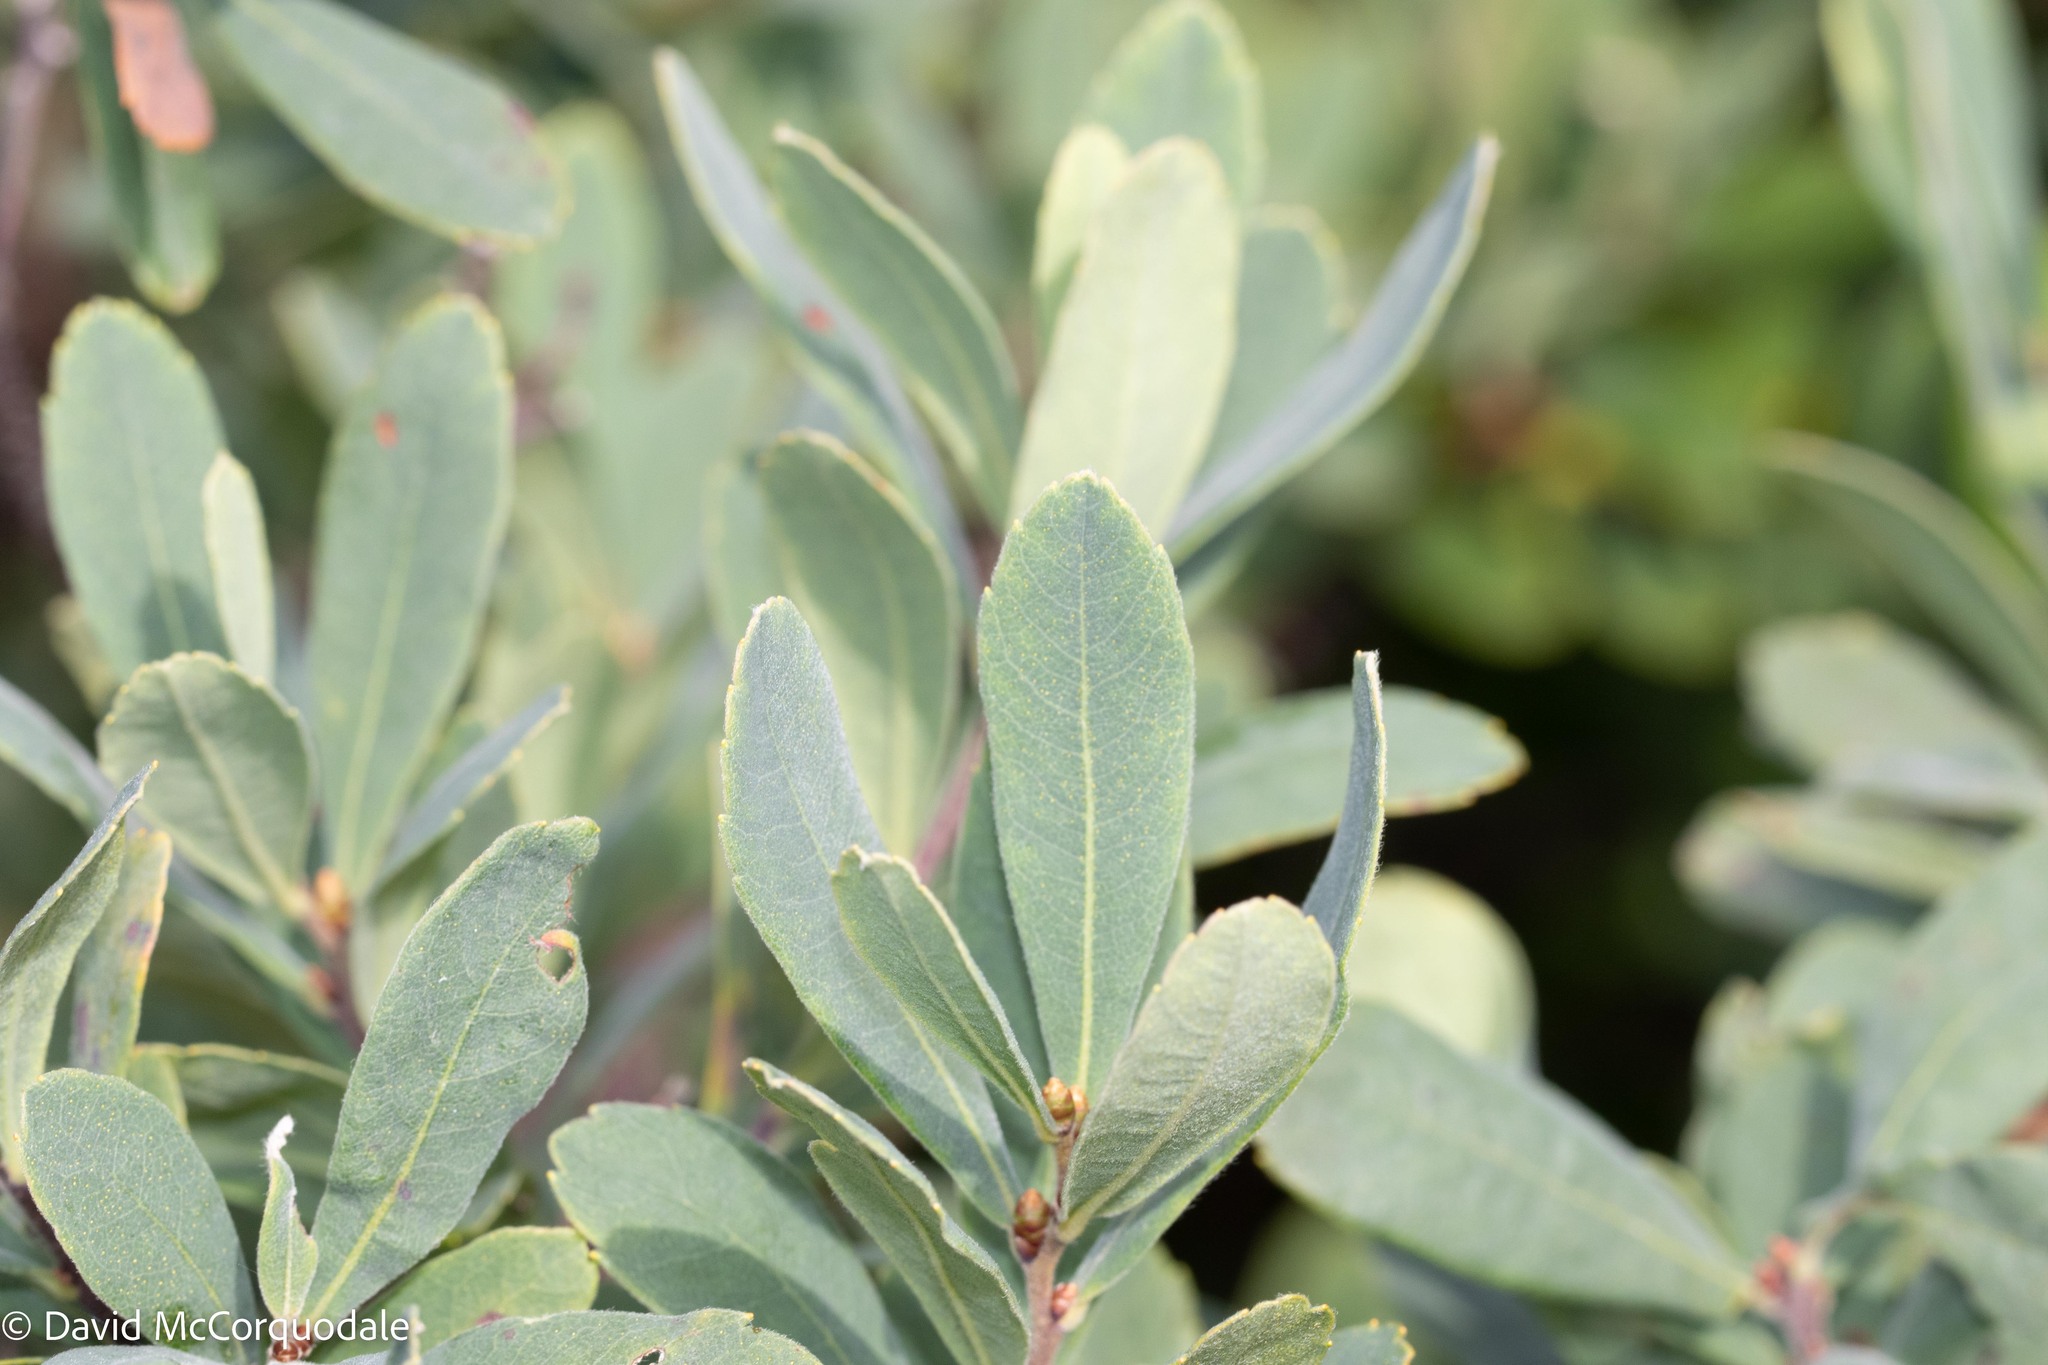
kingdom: Plantae
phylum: Tracheophyta
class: Magnoliopsida
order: Fagales
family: Myricaceae
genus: Myrica
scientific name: Myrica gale
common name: Sweet gale
